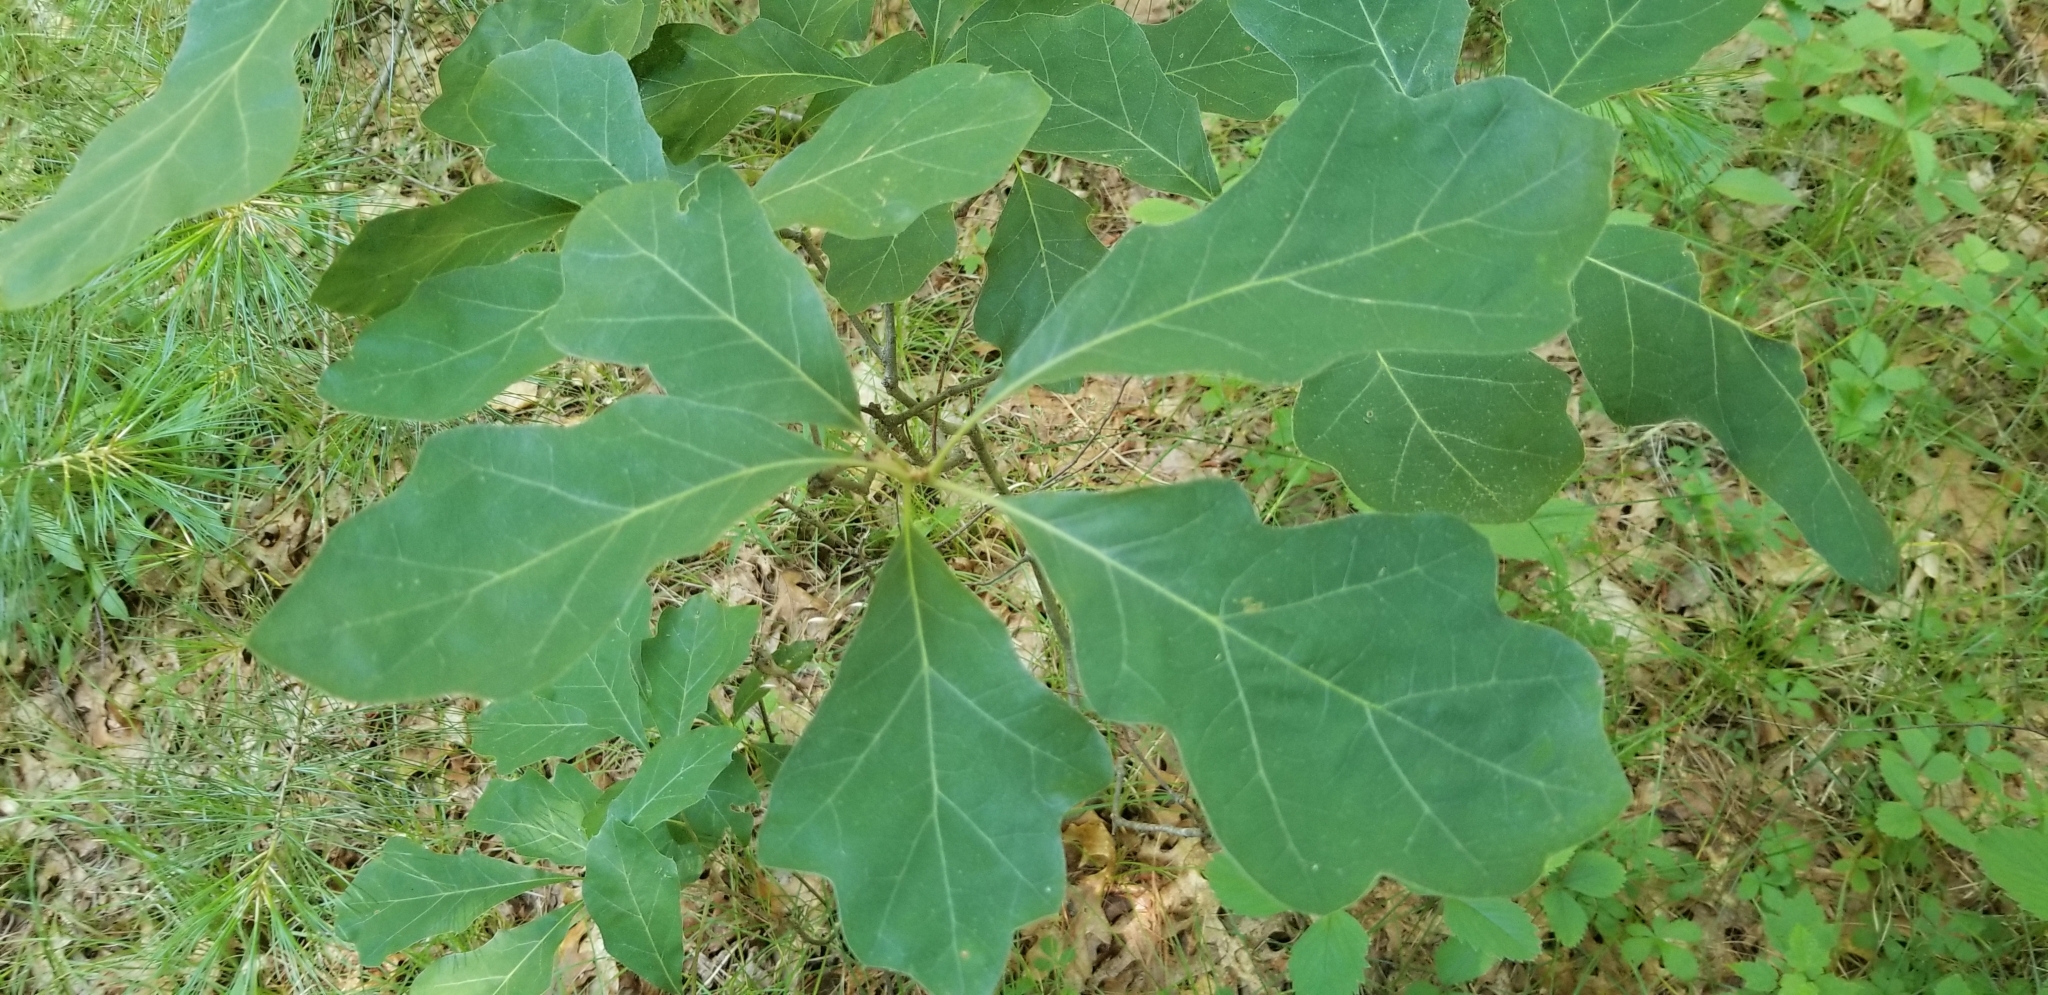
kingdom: Plantae
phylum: Tracheophyta
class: Magnoliopsida
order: Fagales
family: Fagaceae
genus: Quercus
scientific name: Quercus ilicifolia
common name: Bear oak
